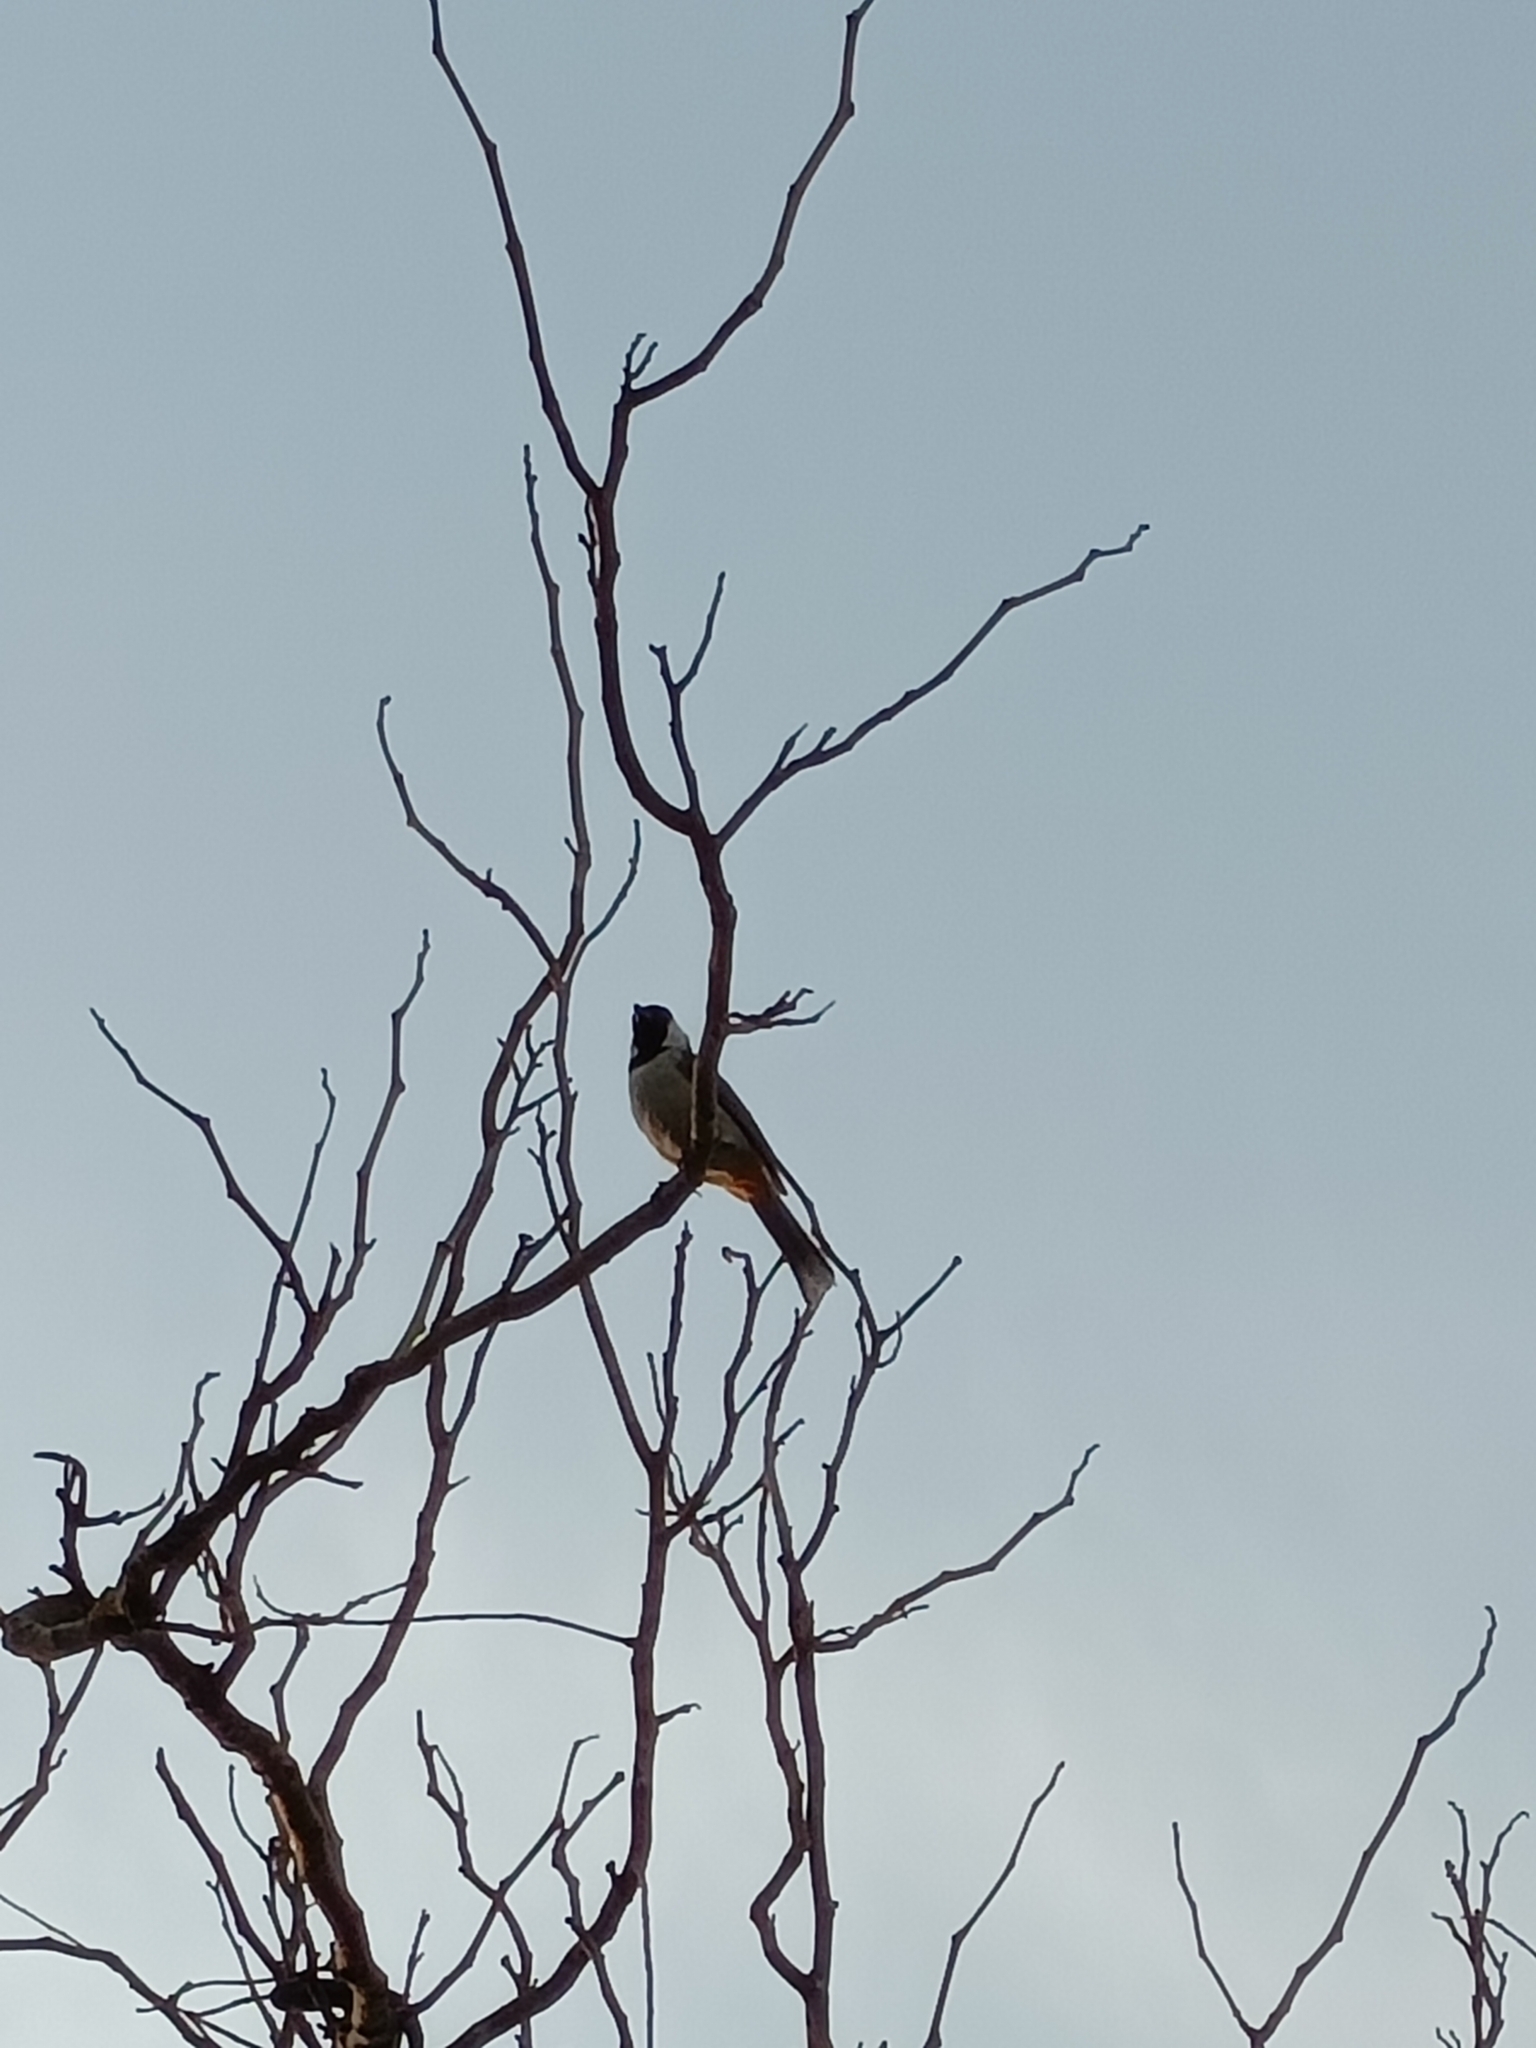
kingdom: Animalia
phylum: Chordata
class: Aves
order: Passeriformes
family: Pycnonotidae
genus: Pycnonotus
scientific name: Pycnonotus leucotis
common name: White-eared bulbul
